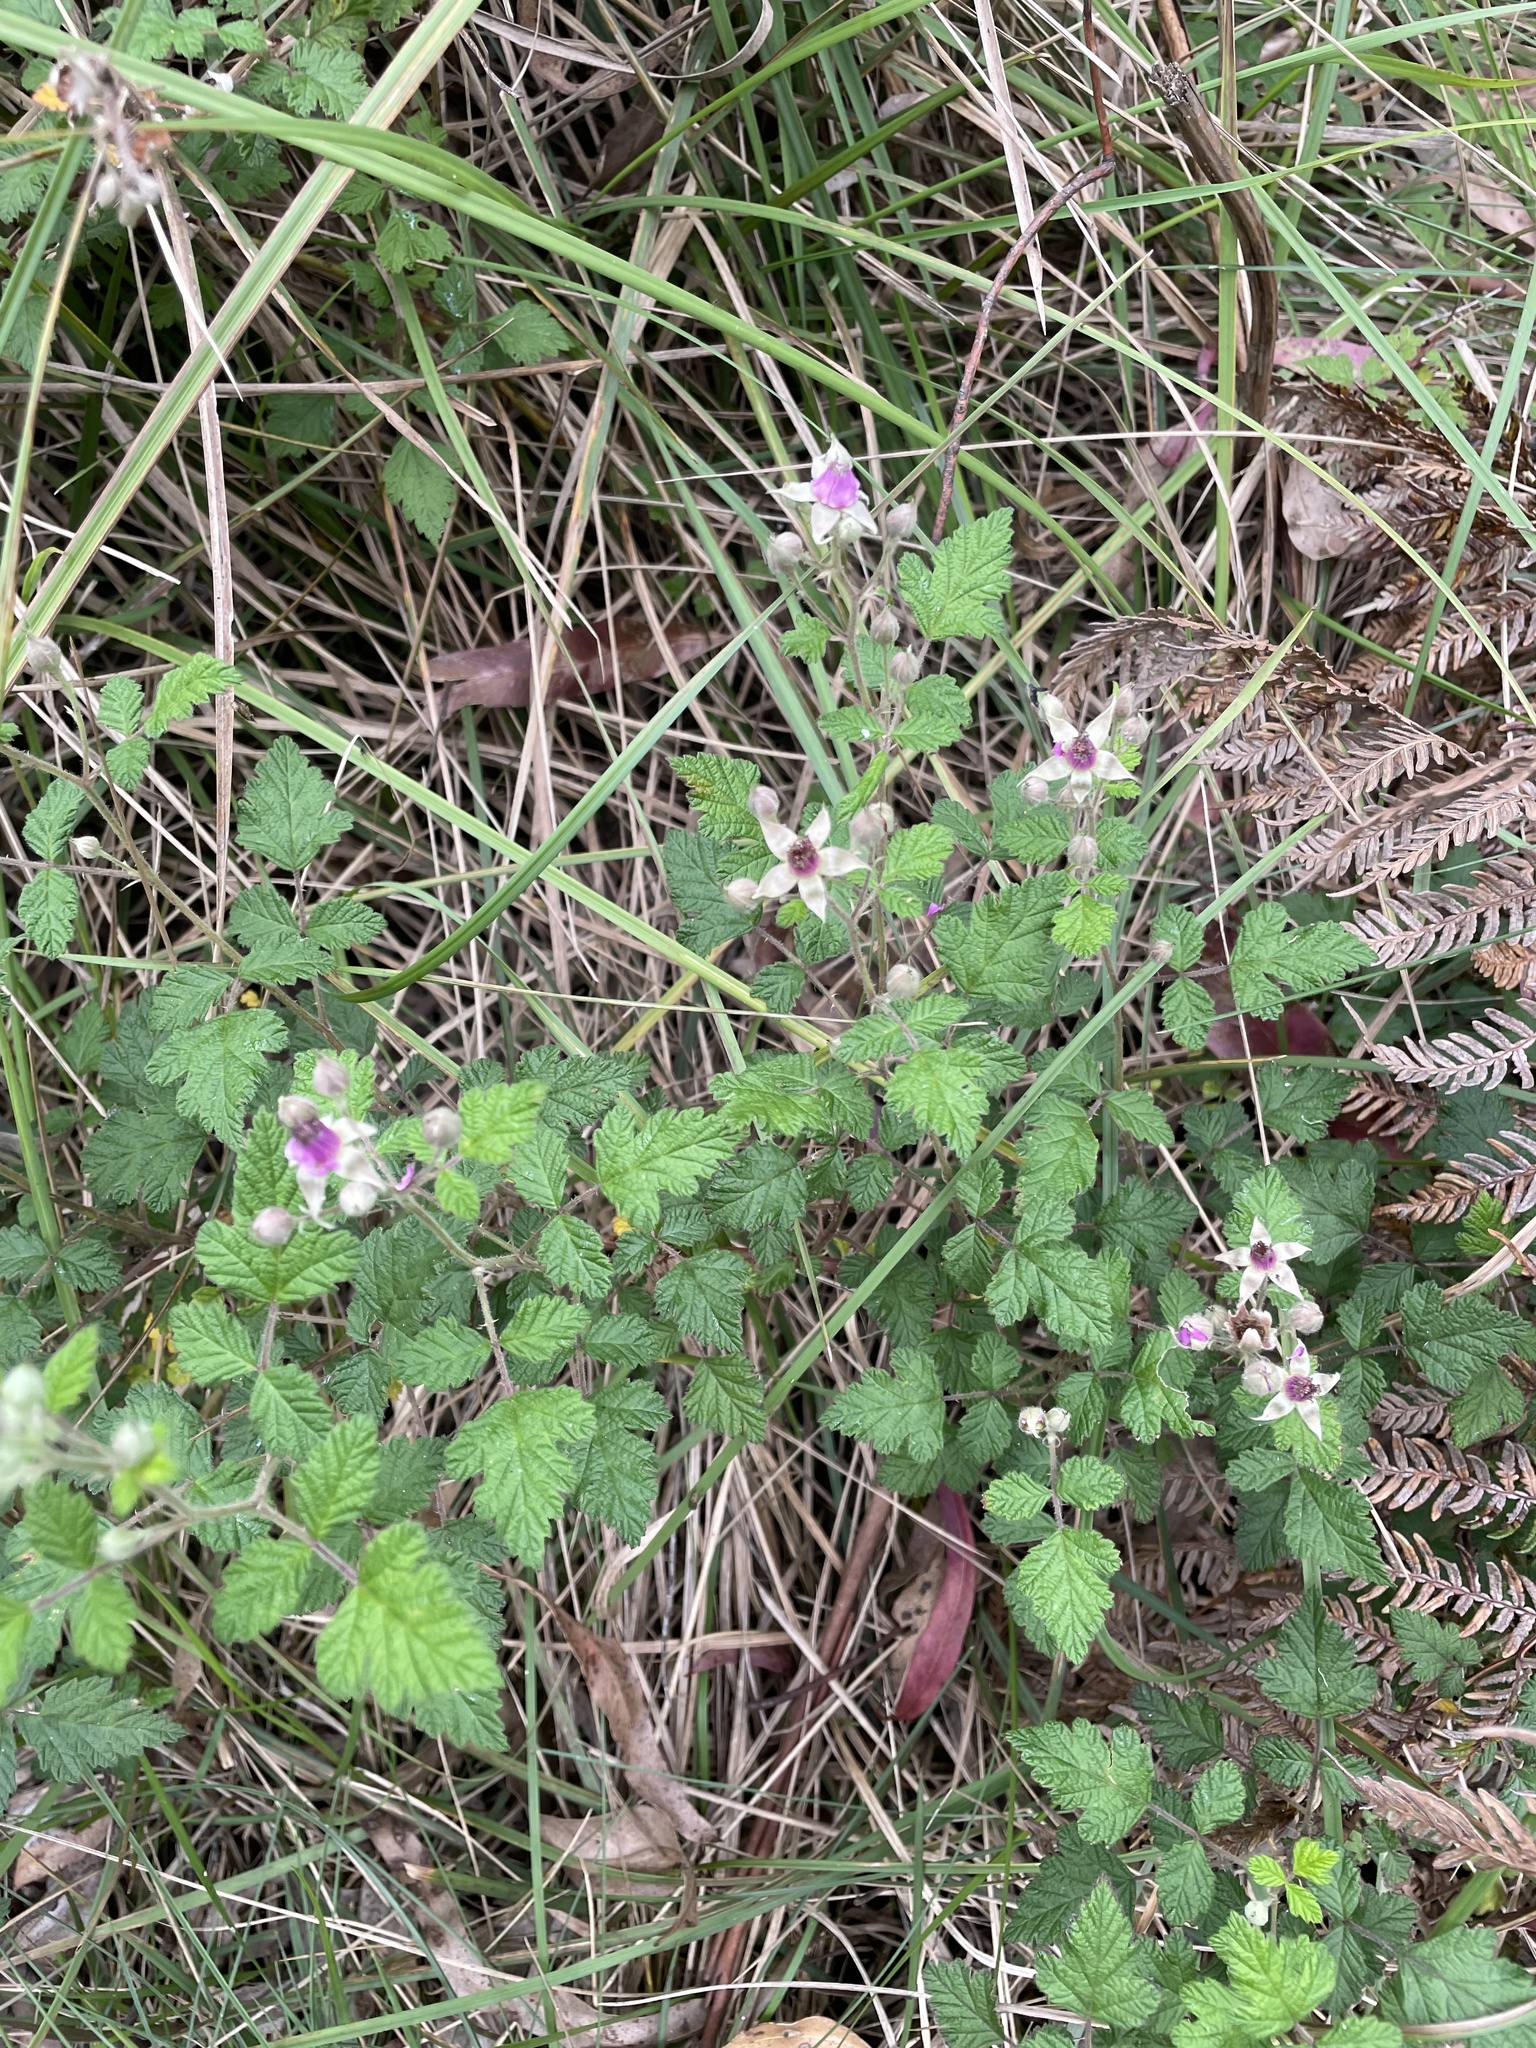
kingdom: Plantae
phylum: Tracheophyta
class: Magnoliopsida
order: Rosales
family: Rosaceae
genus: Rubus
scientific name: Rubus parvifolius
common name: Threeleaf blackberry
